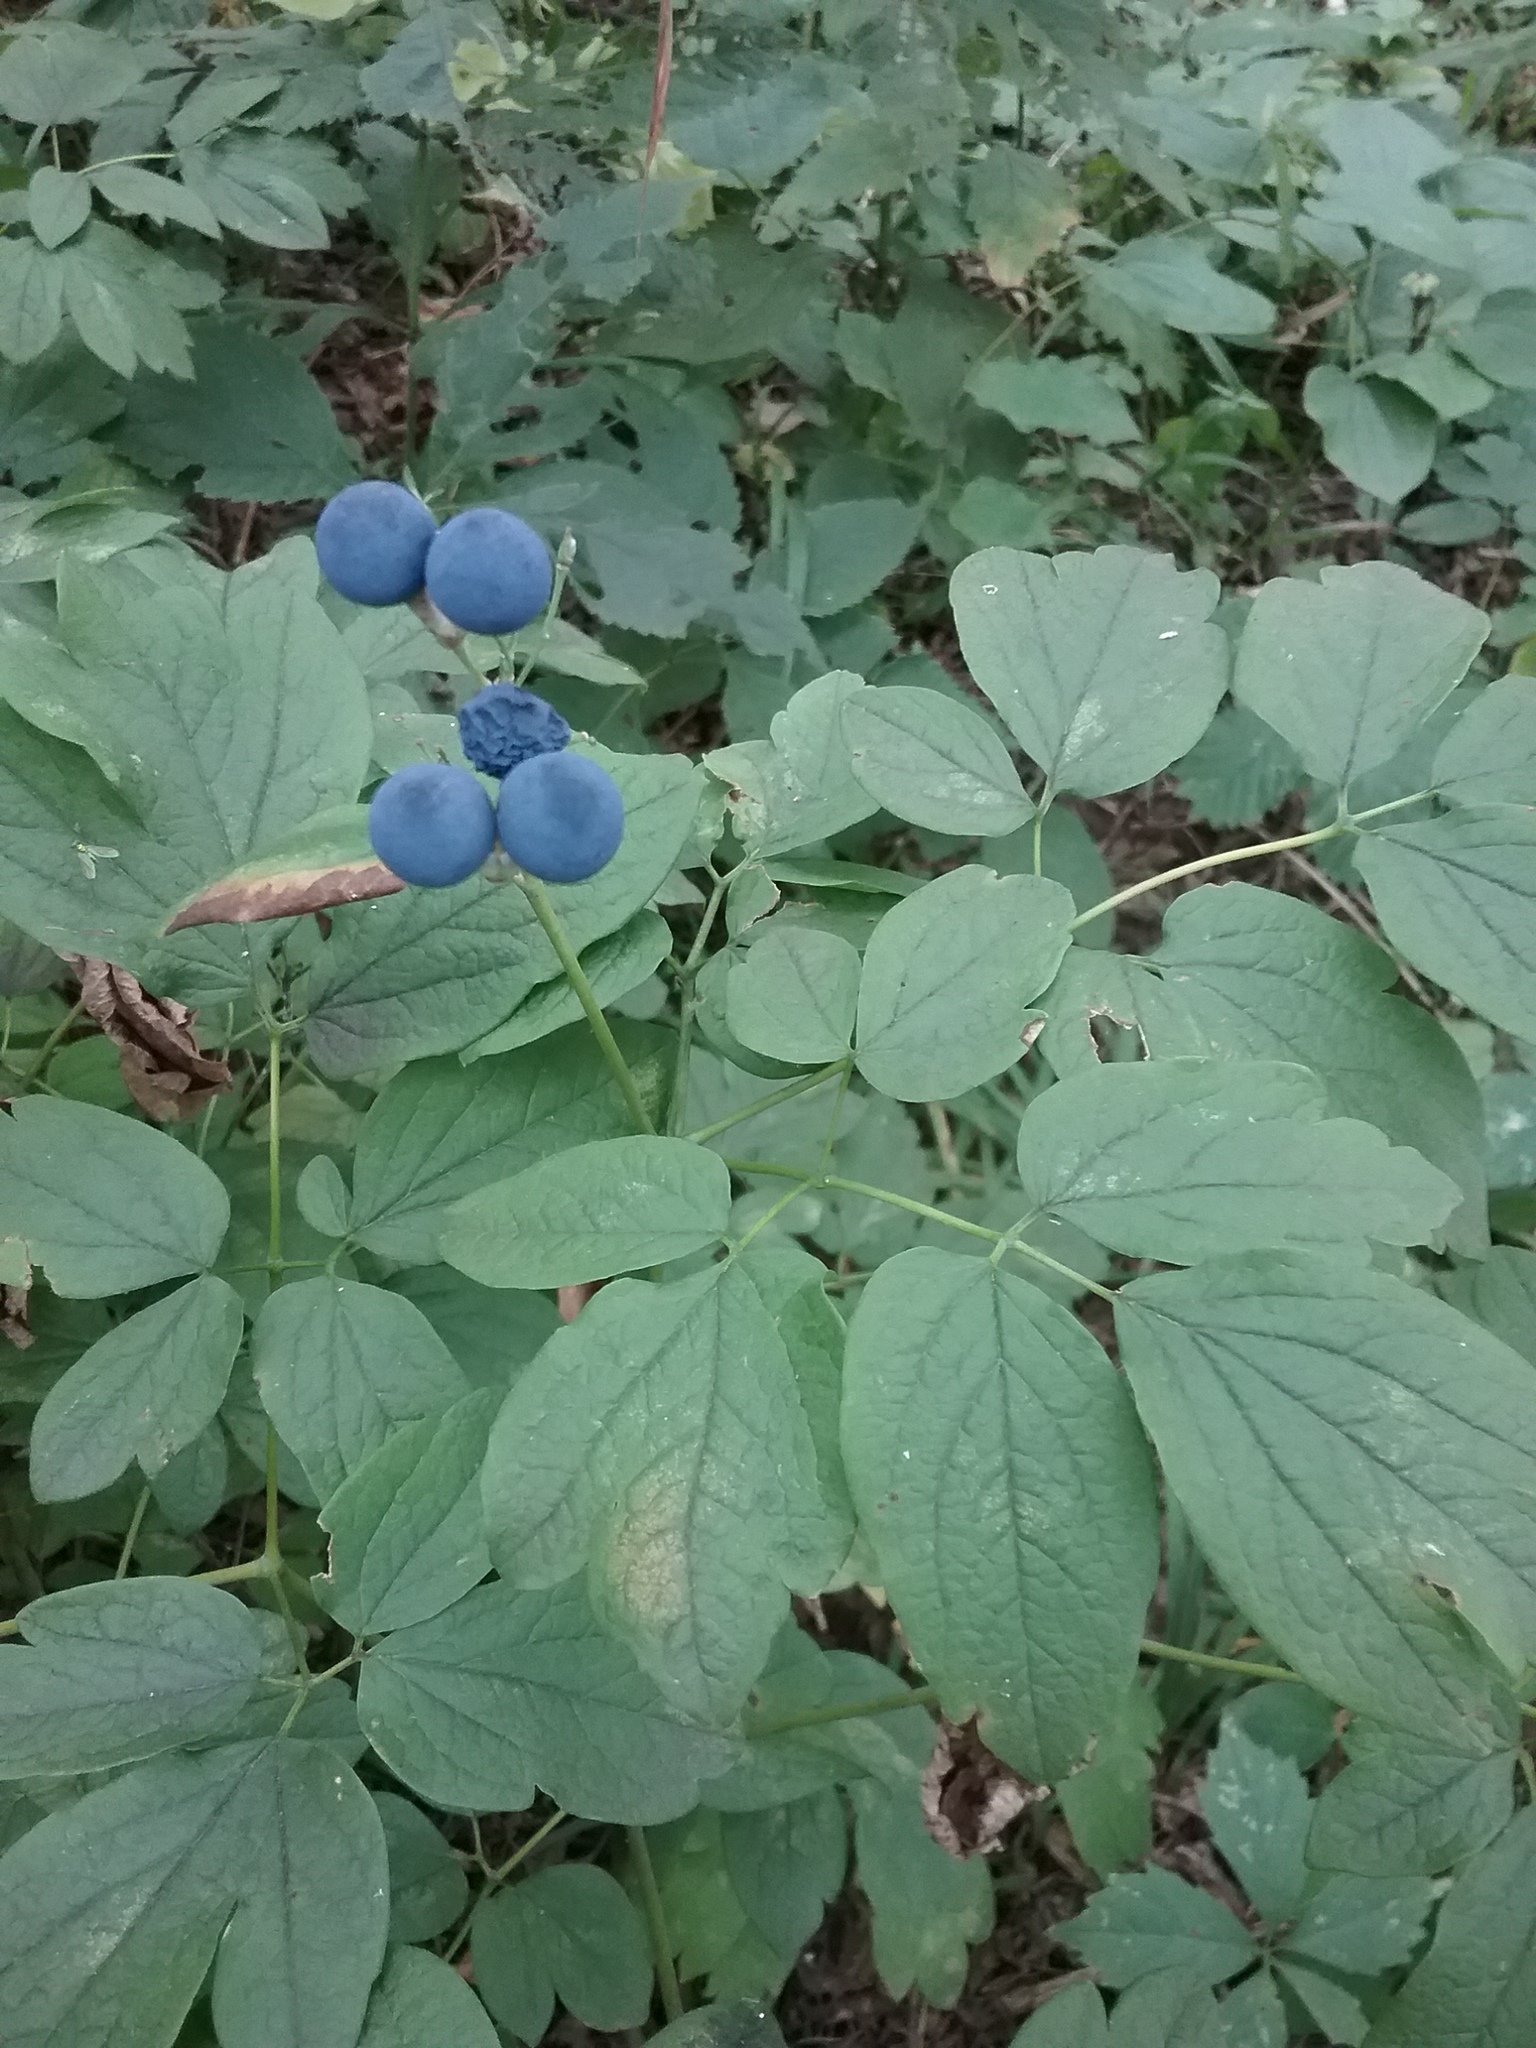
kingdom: Plantae
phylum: Tracheophyta
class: Magnoliopsida
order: Ranunculales
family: Berberidaceae
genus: Caulophyllum
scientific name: Caulophyllum thalictroides
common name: Blue cohosh
